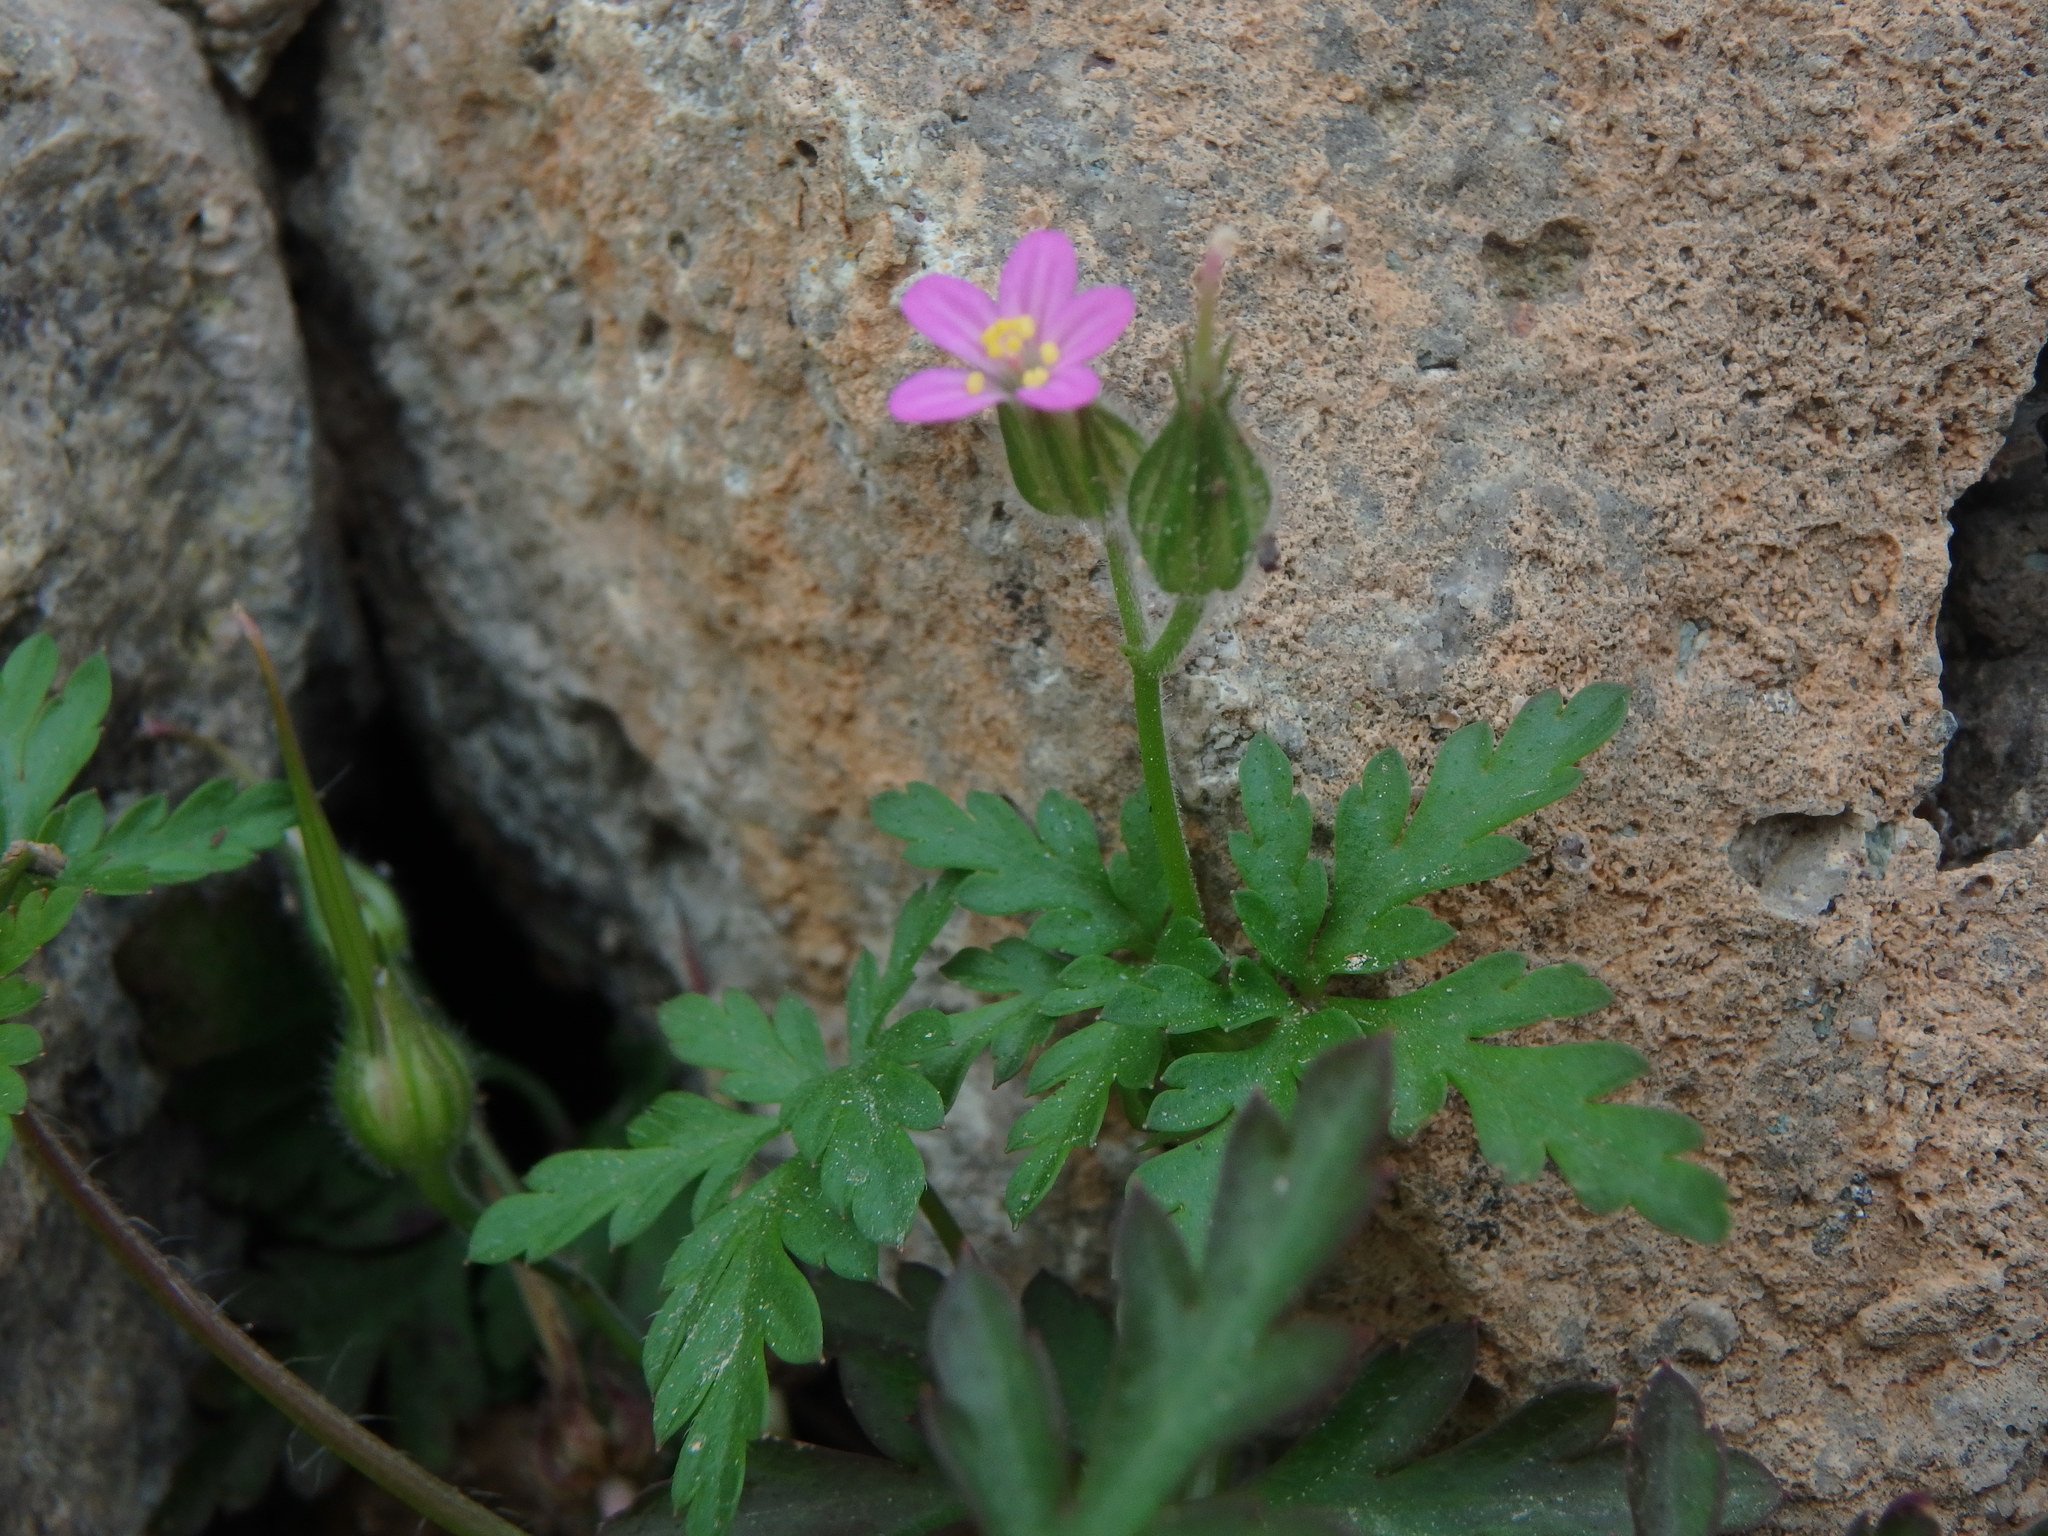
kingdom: Plantae
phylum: Tracheophyta
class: Magnoliopsida
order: Geraniales
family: Geraniaceae
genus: Geranium
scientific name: Geranium purpureum
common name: Little-robin
